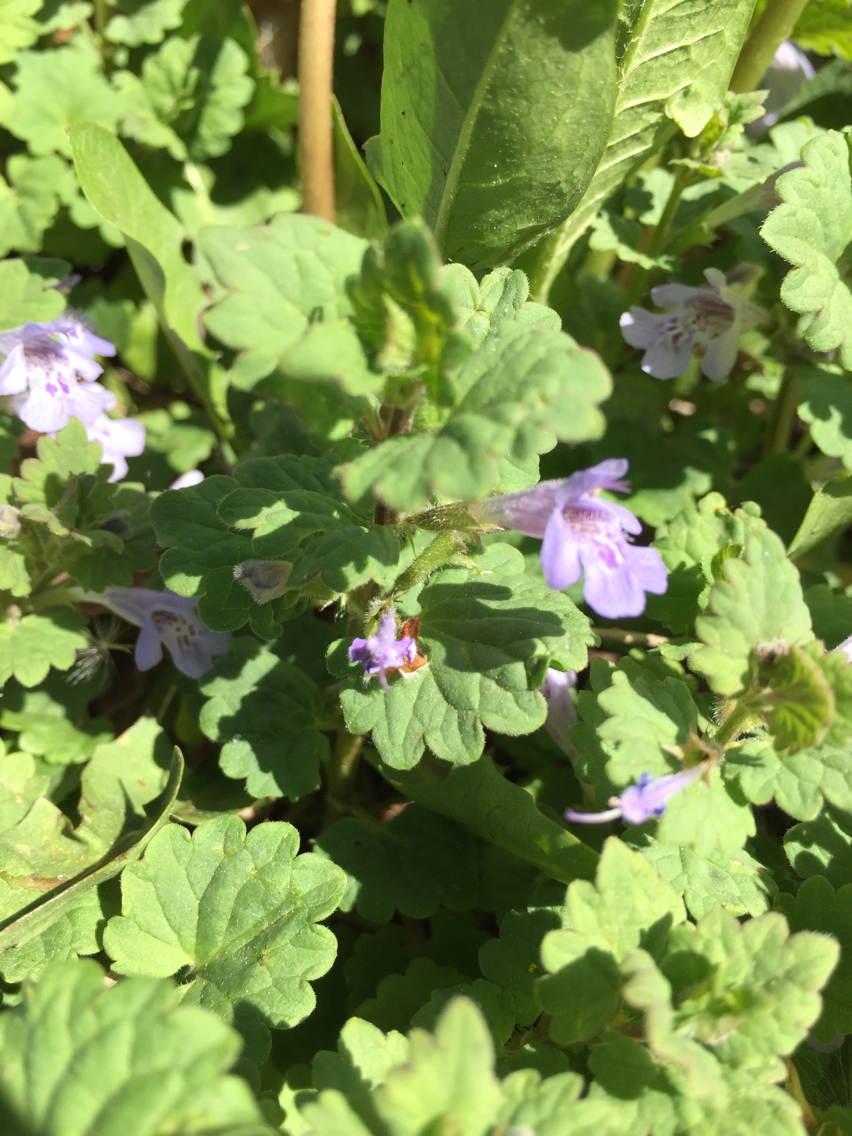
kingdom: Plantae
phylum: Tracheophyta
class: Magnoliopsida
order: Lamiales
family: Lamiaceae
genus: Glechoma
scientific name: Glechoma hederacea
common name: Ground ivy
